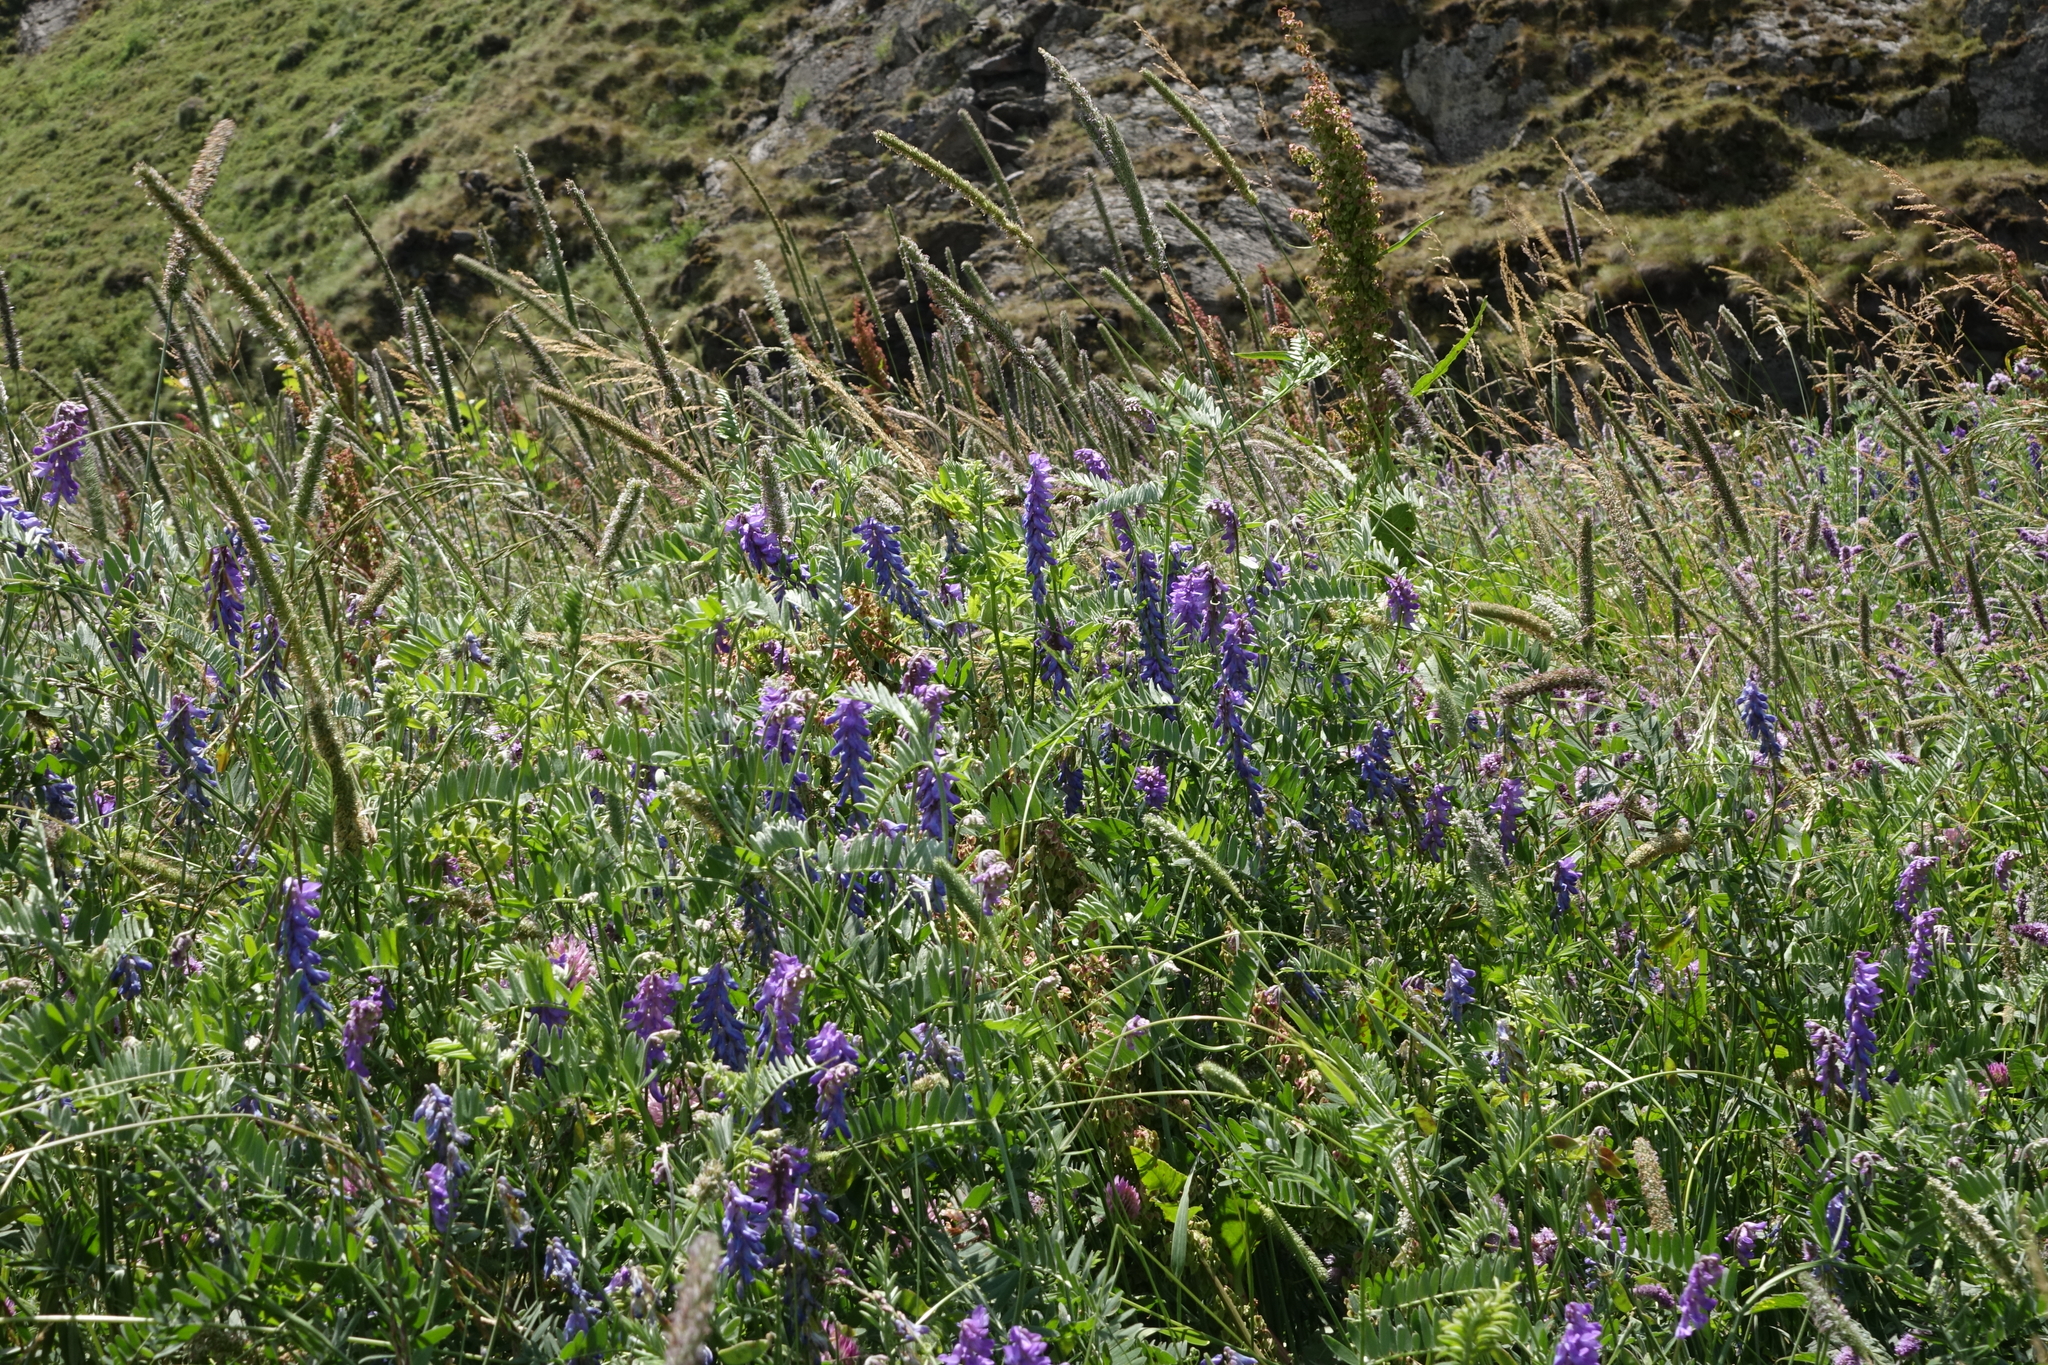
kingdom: Plantae
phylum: Tracheophyta
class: Magnoliopsida
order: Fabales
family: Fabaceae
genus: Vicia
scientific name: Vicia cracca
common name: Bird vetch
